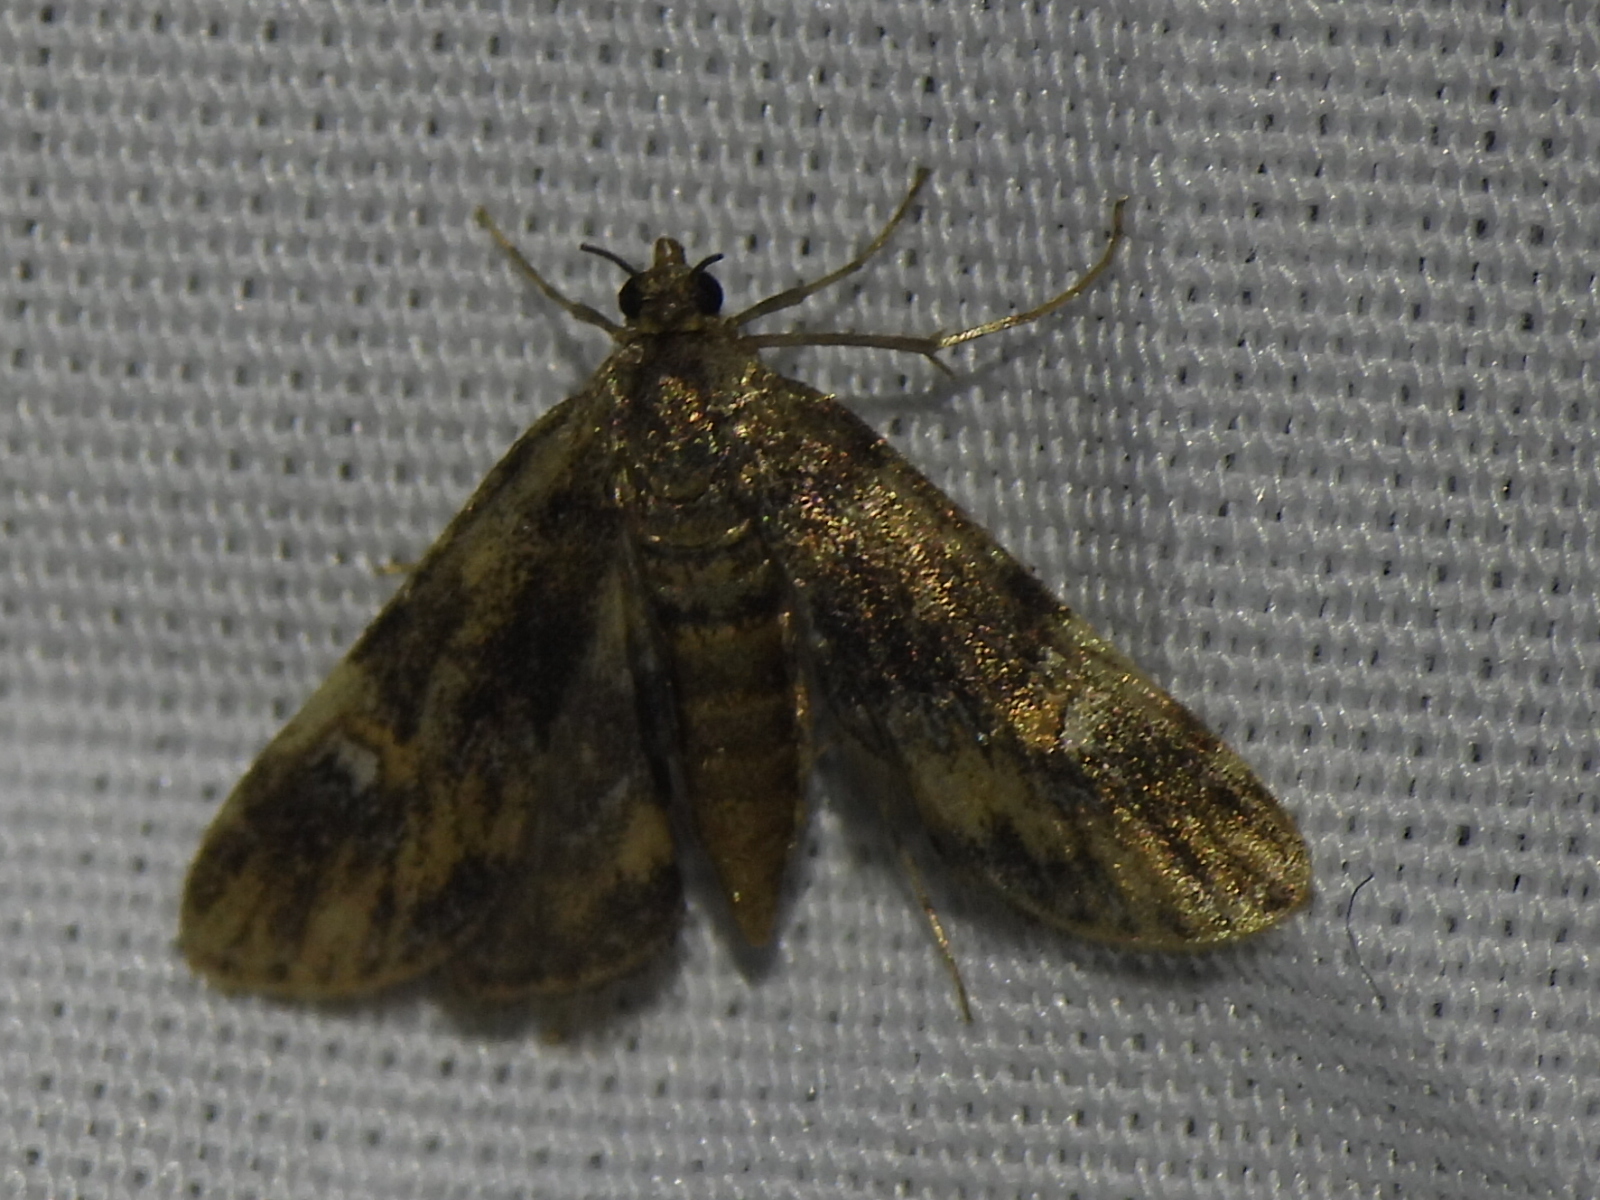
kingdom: Animalia
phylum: Arthropoda
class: Insecta
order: Lepidoptera
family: Crambidae
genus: Elophila
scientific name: Elophila obliteralis
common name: Waterlily leafcutter moth
